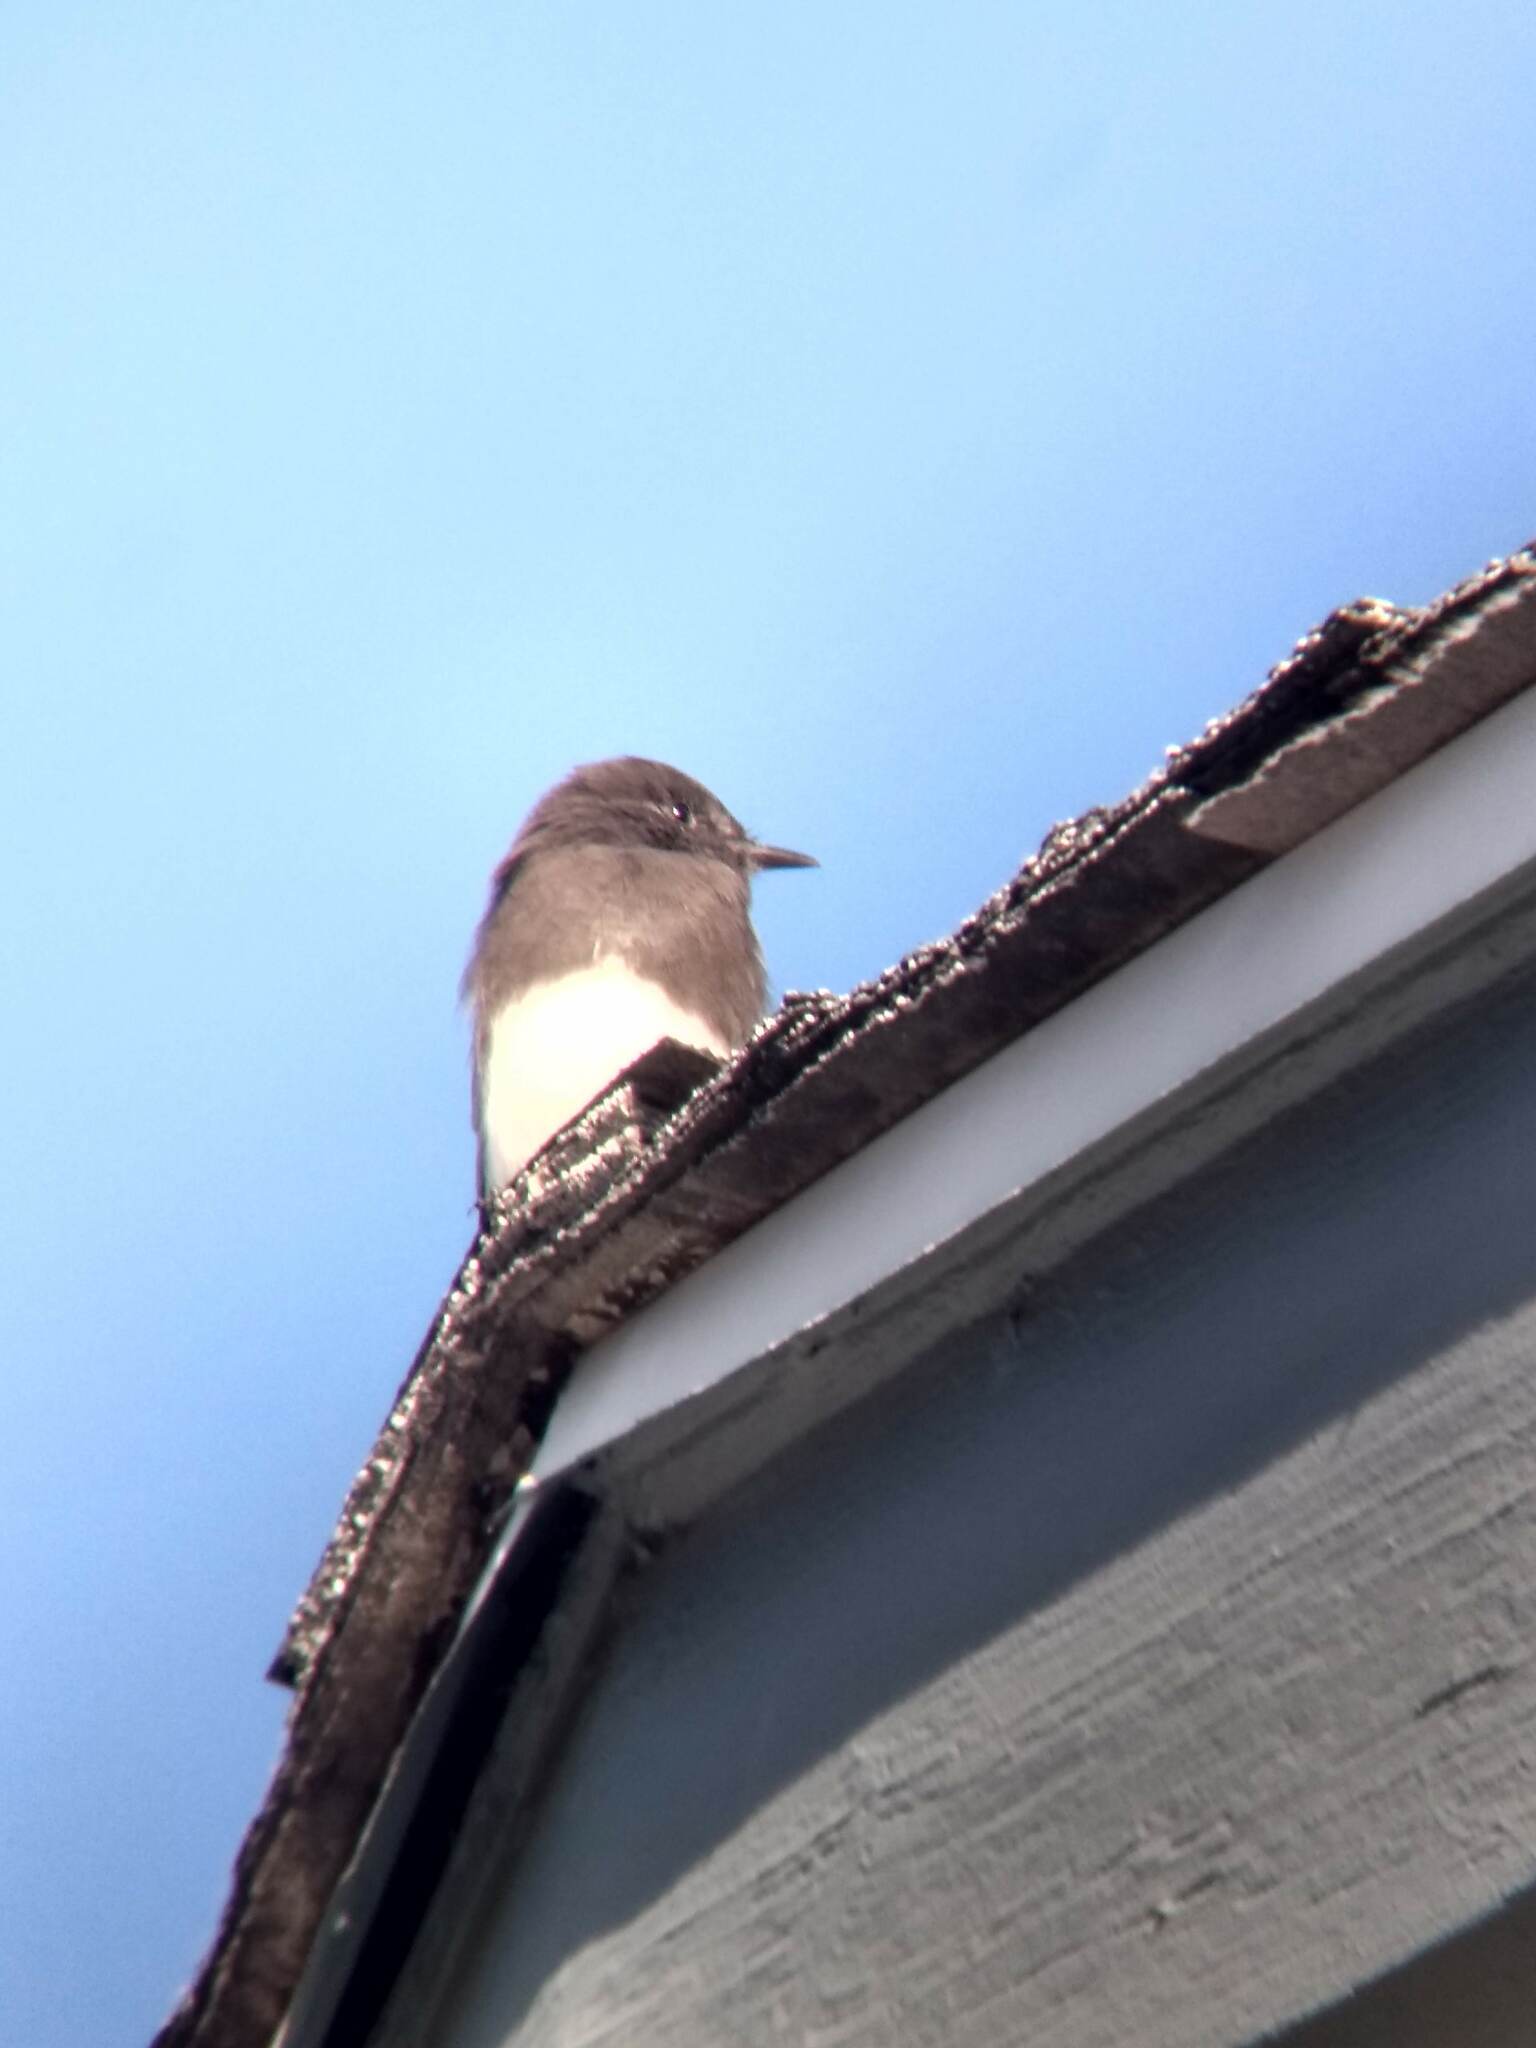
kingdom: Animalia
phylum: Chordata
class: Aves
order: Passeriformes
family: Tyrannidae
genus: Sayornis
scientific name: Sayornis nigricans
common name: Black phoebe
